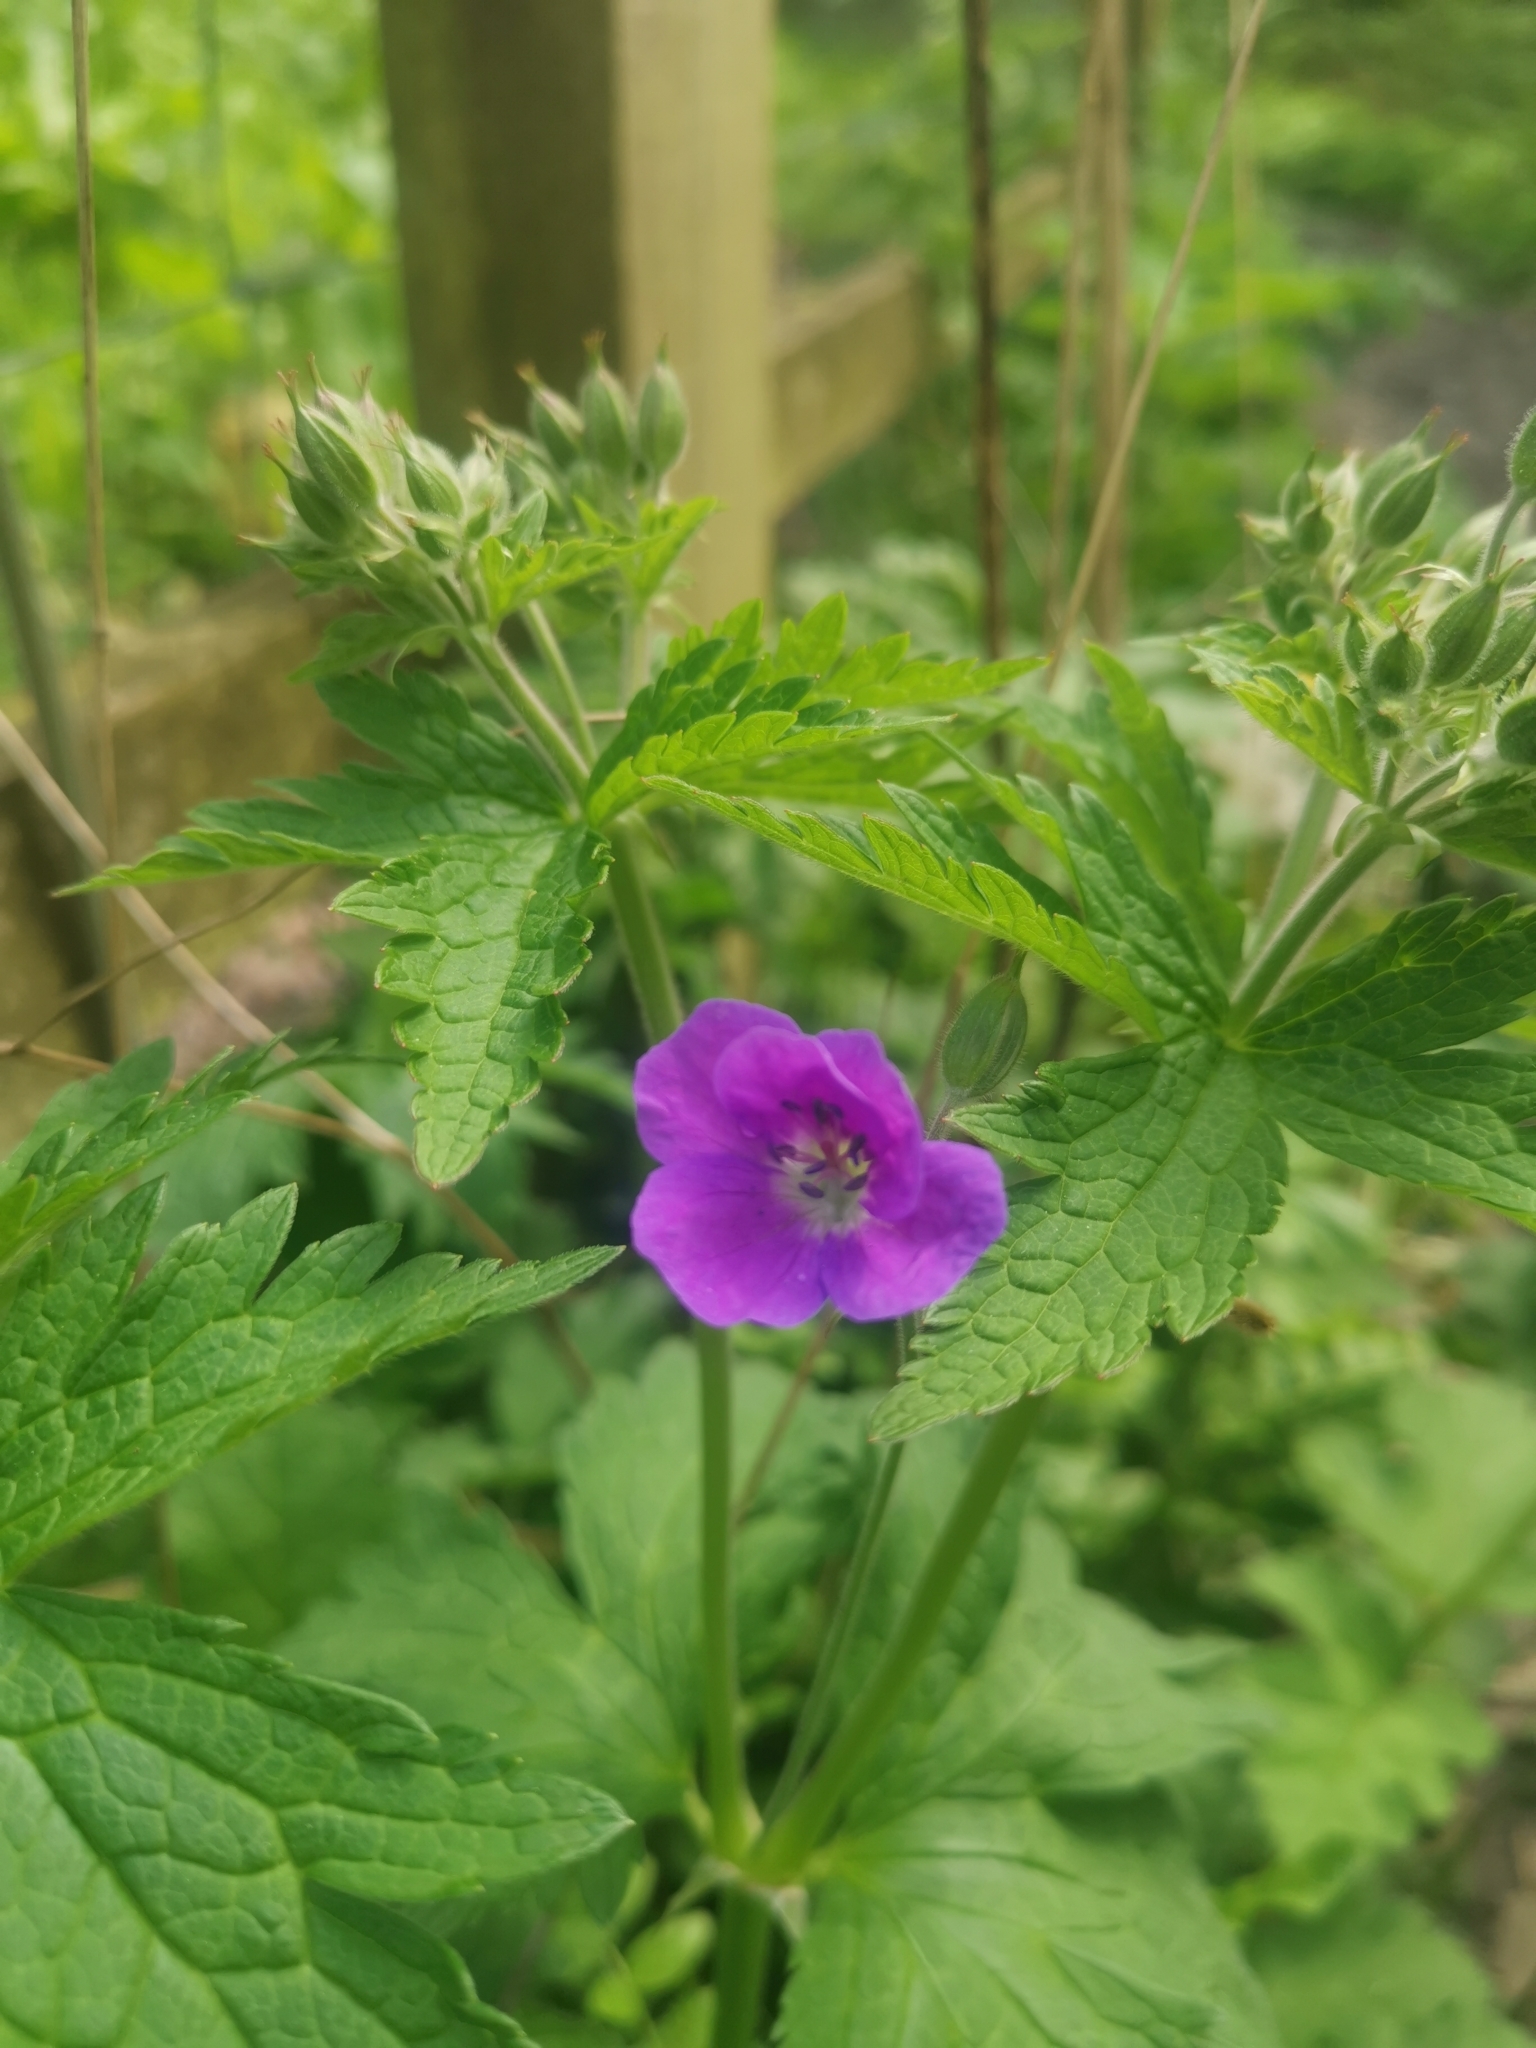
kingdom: Plantae
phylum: Tracheophyta
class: Magnoliopsida
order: Geraniales
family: Geraniaceae
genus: Geranium
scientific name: Geranium sylvaticum
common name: Wood crane's-bill
